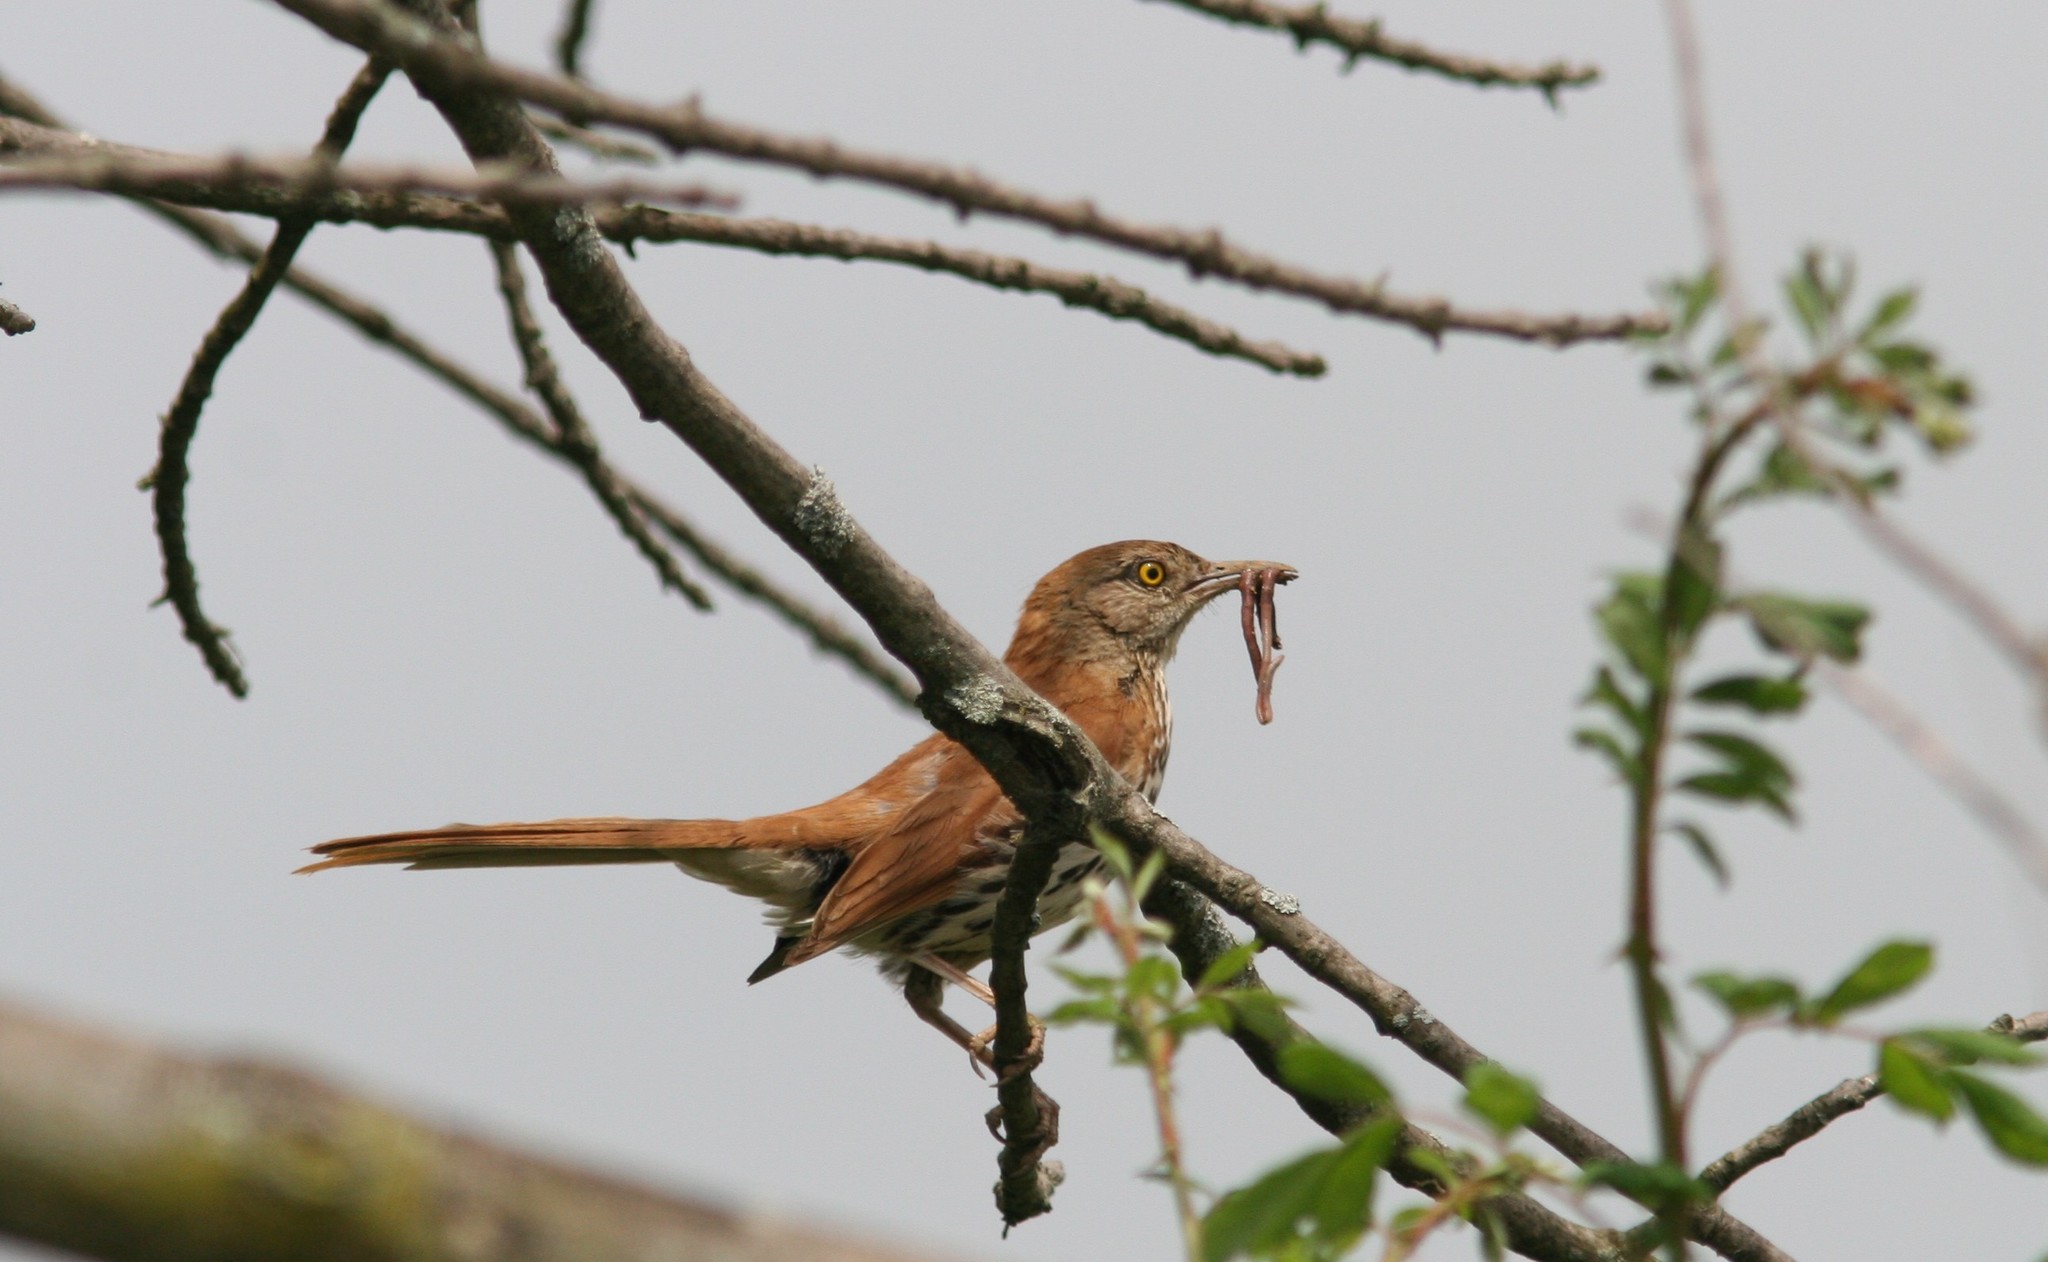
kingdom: Animalia
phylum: Chordata
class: Aves
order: Passeriformes
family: Mimidae
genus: Toxostoma
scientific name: Toxostoma rufum
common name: Brown thrasher
